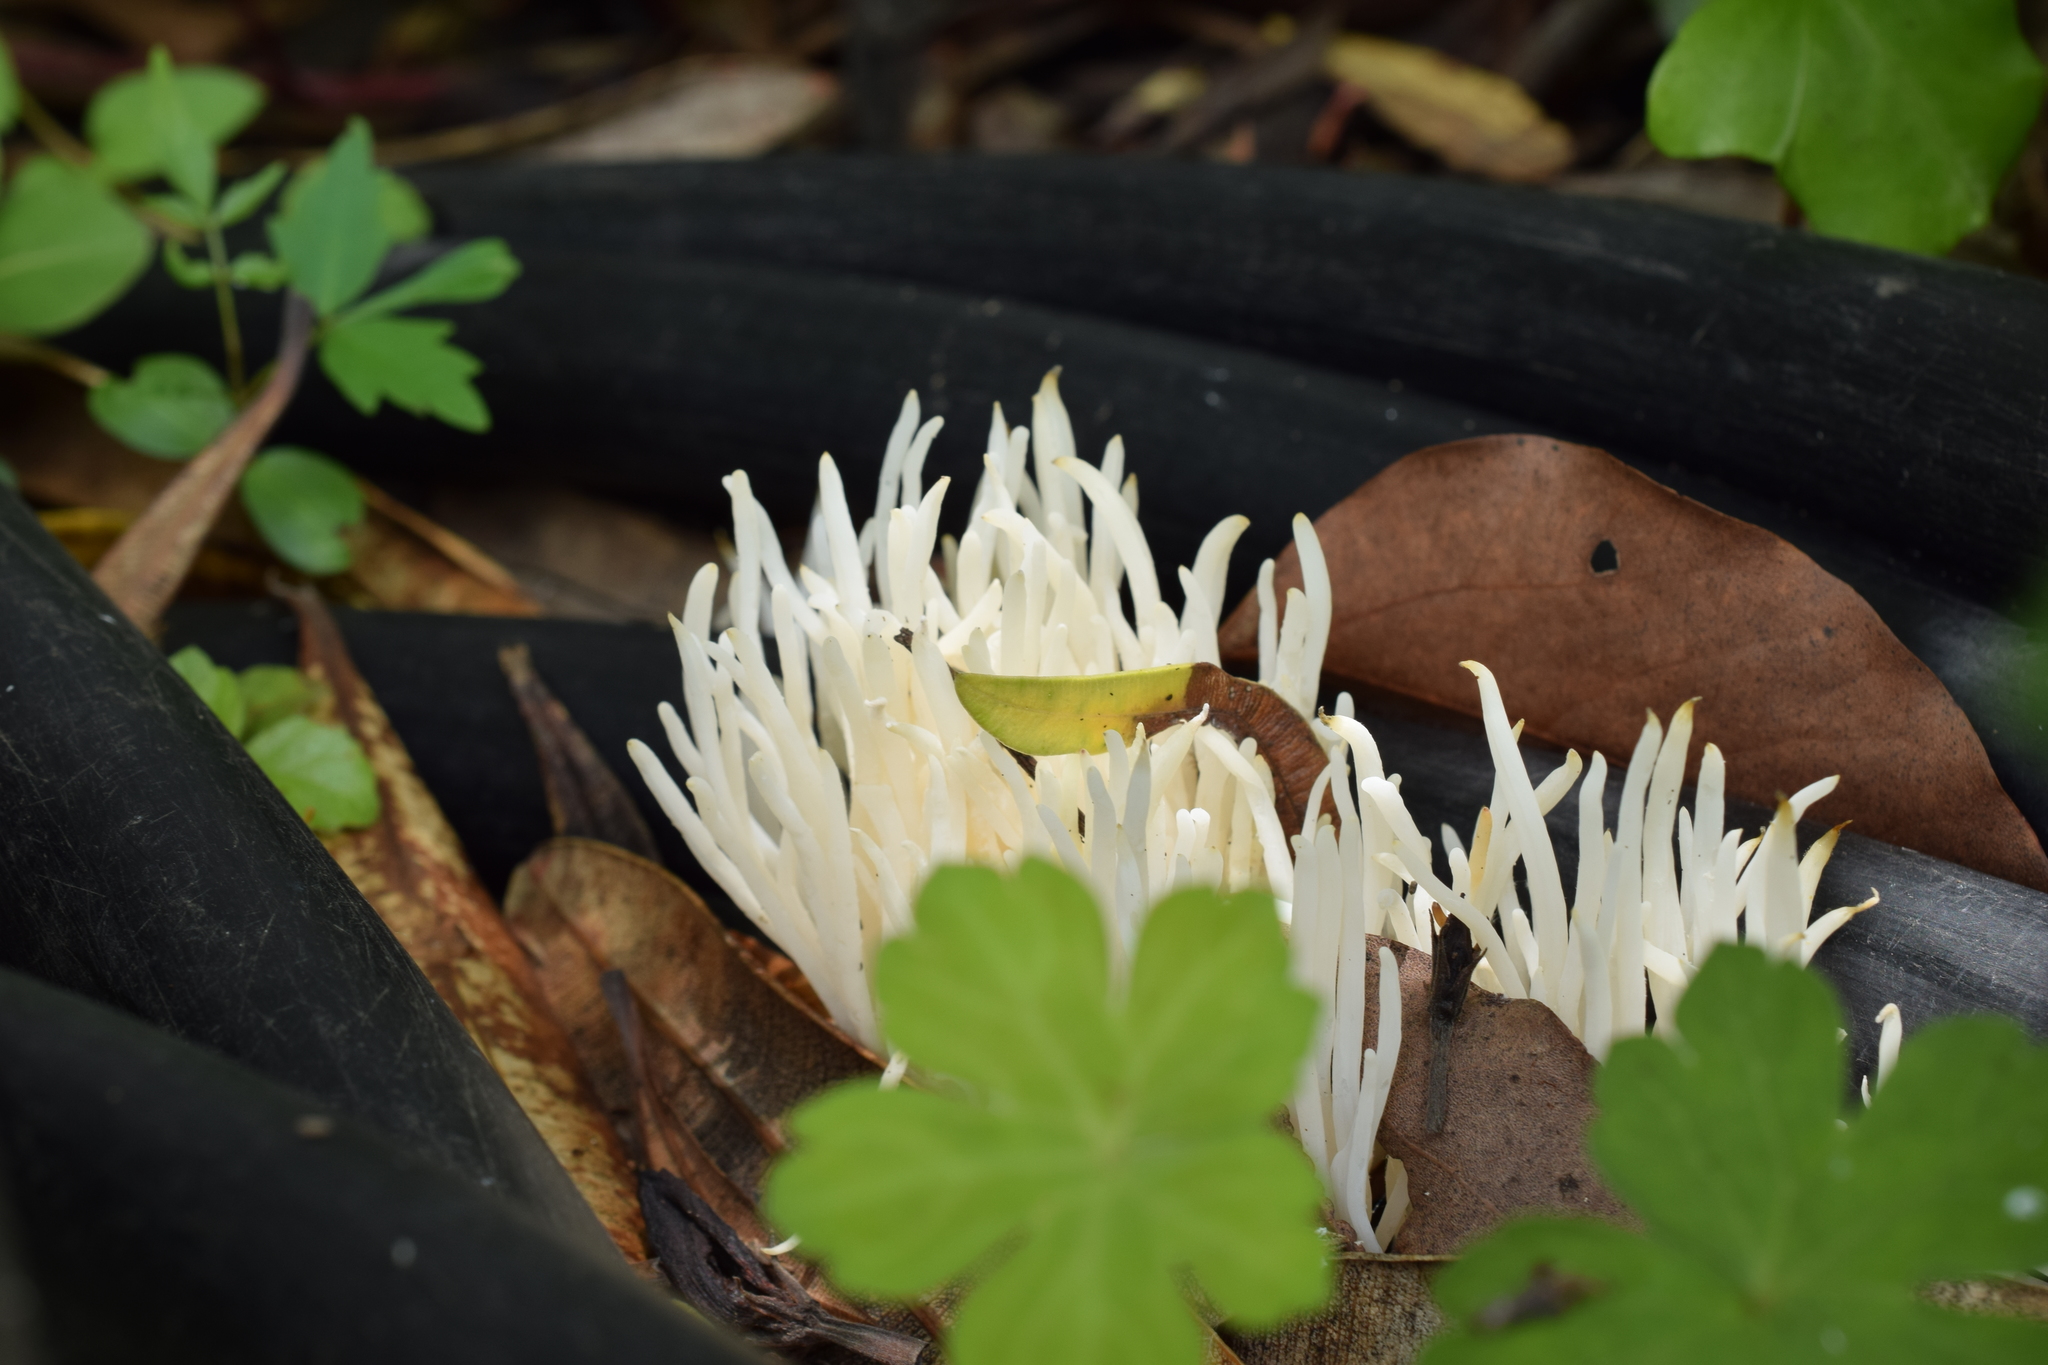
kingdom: Fungi
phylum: Basidiomycota
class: Agaricomycetes
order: Agaricales
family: Clavariaceae
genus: Clavaria
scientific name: Clavaria fragilis
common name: White spindles
